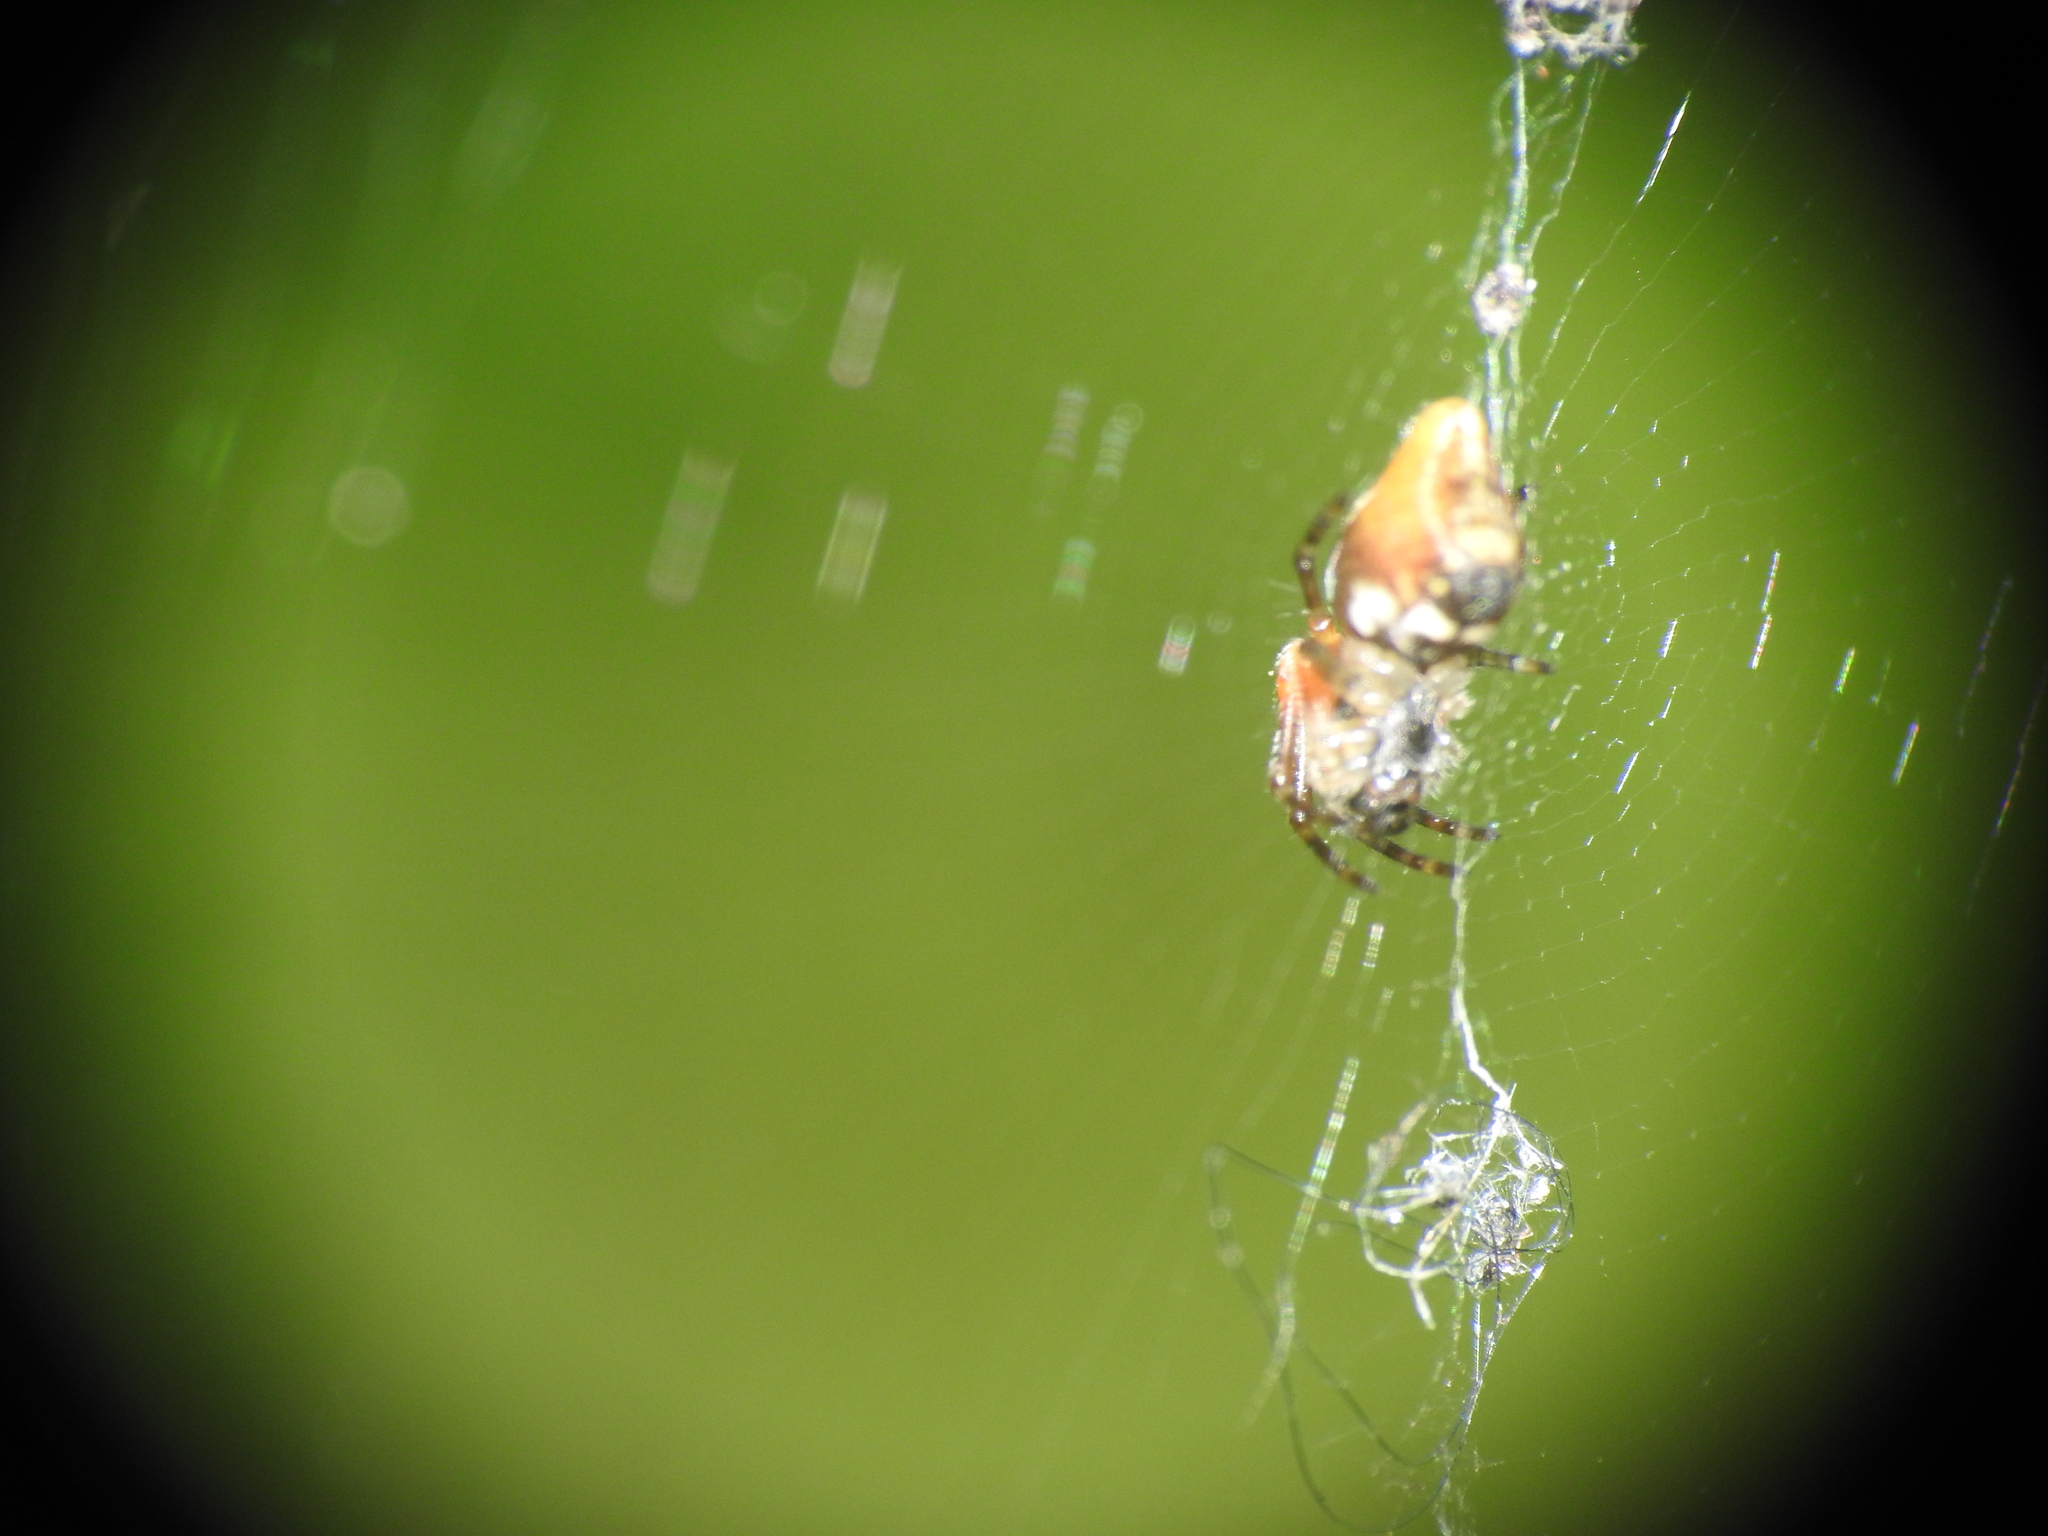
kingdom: Animalia
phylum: Arthropoda
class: Arachnida
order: Araneae
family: Araneidae
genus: Cyclosa
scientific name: Cyclosa conica
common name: Conical trashline orbweaver
